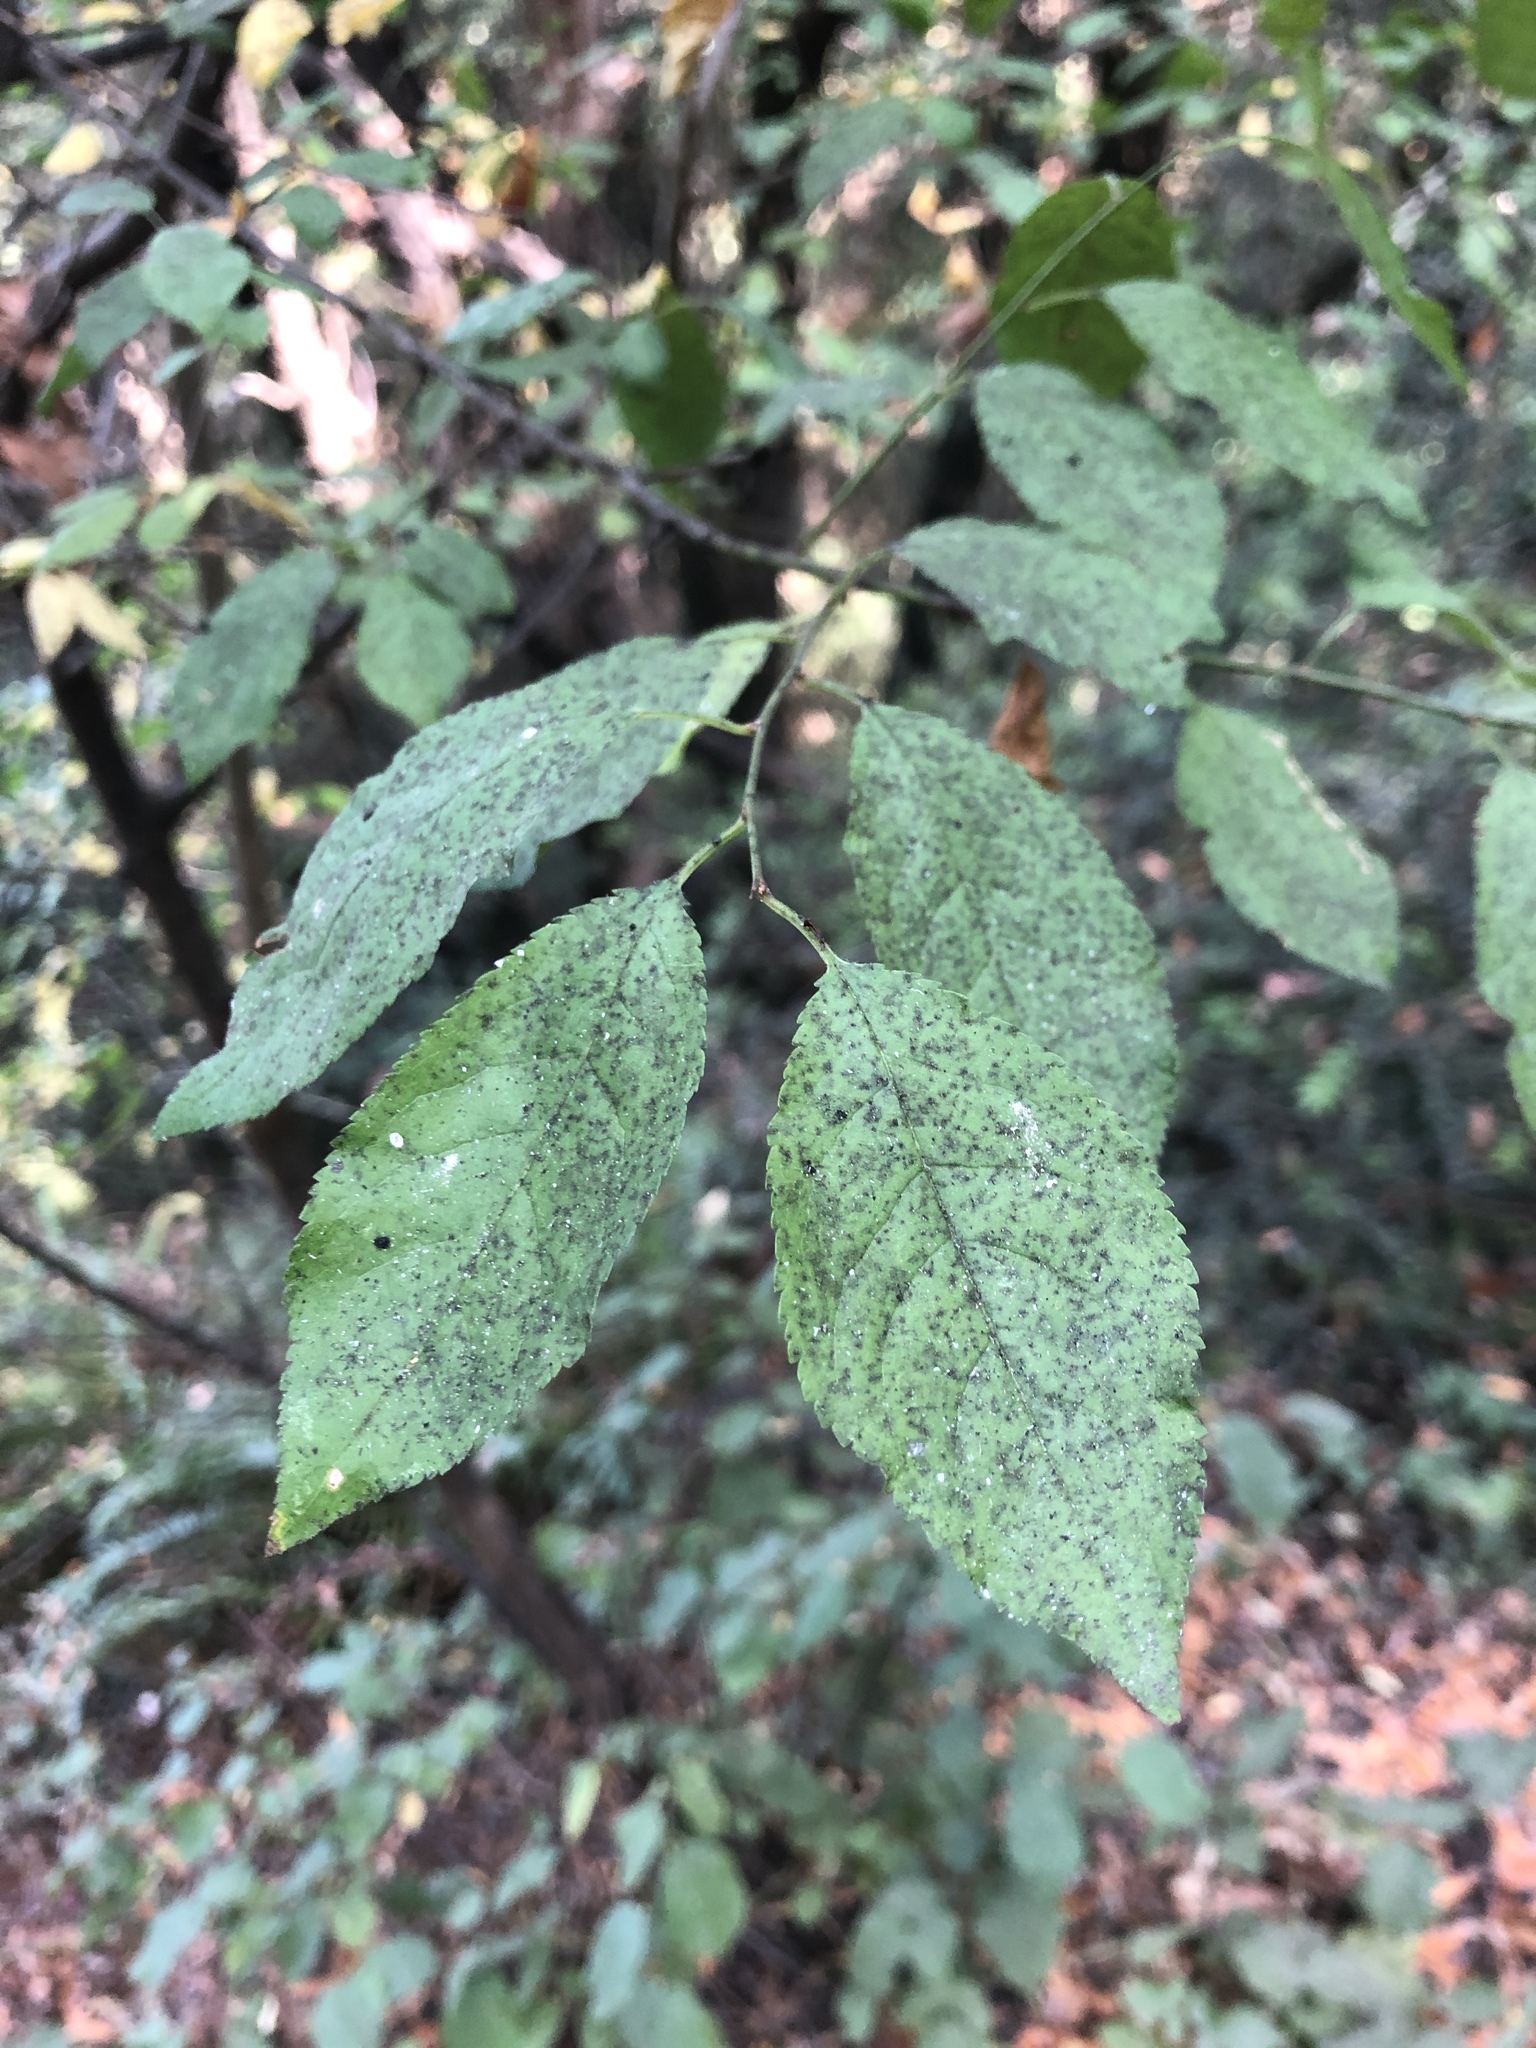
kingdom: Plantae
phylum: Tracheophyta
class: Magnoliopsida
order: Rosales
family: Rosaceae
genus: Prunus
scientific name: Prunus cerasifera
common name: Cherry plum
